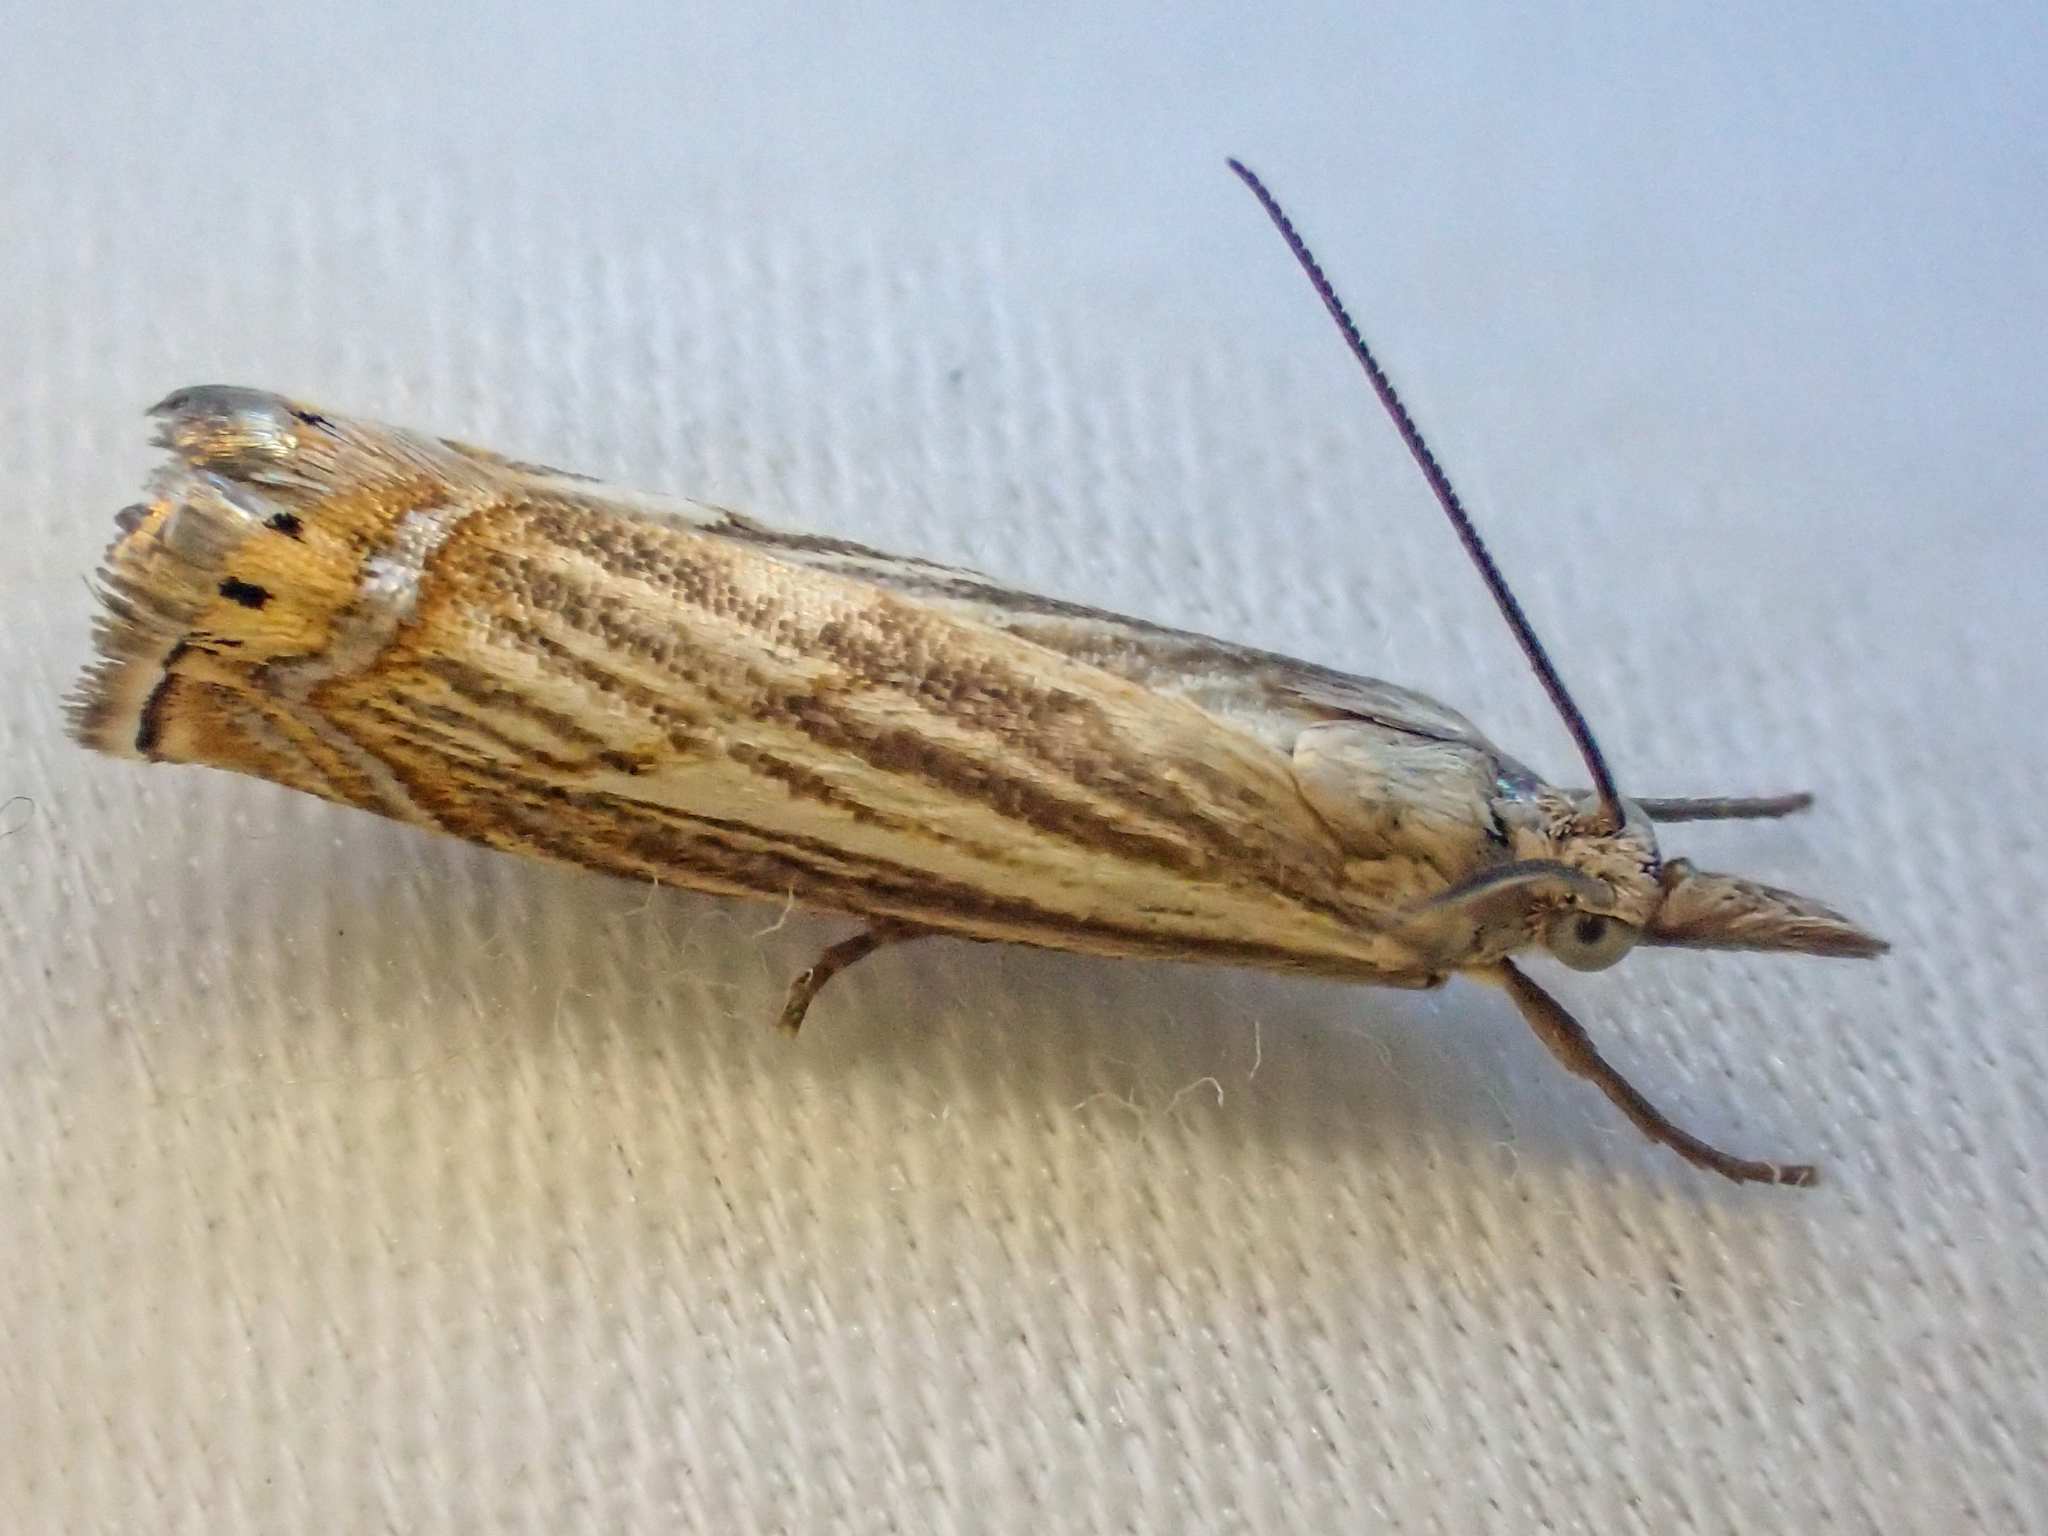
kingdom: Animalia
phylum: Arthropoda
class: Insecta
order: Lepidoptera
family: Crambidae
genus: Chrysoteuchia
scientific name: Chrysoteuchia topiarius
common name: Topiary grass-veneer
